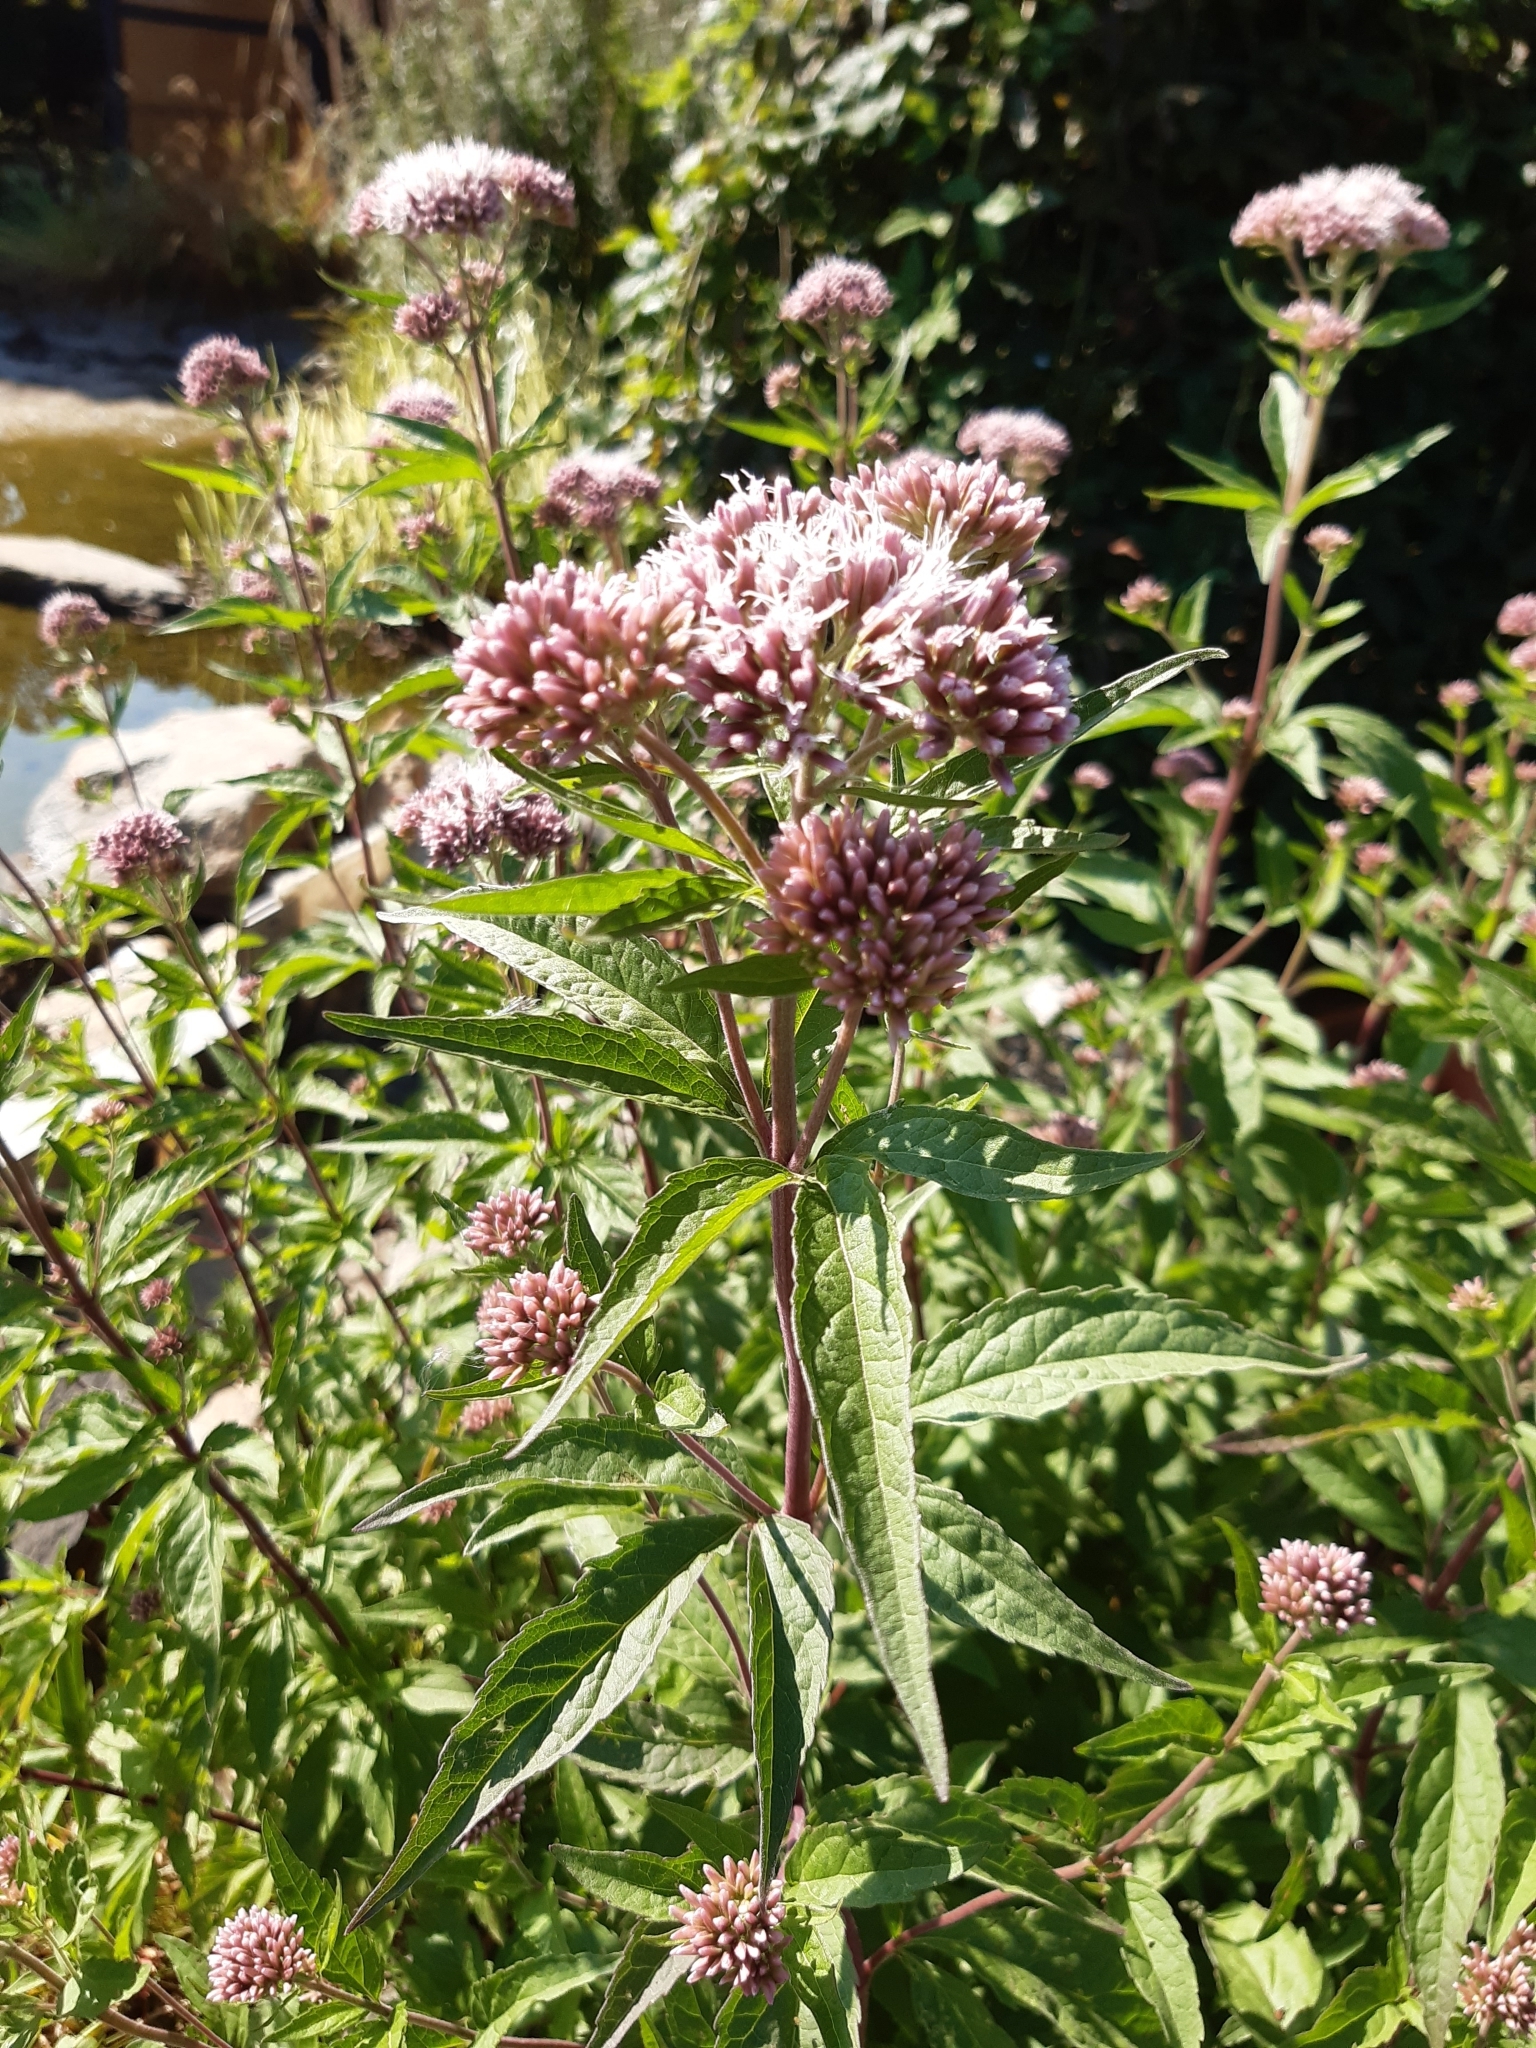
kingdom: Plantae
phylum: Tracheophyta
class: Magnoliopsida
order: Asterales
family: Asteraceae
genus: Eupatorium
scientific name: Eupatorium cannabinum
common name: Hemp-agrimony
